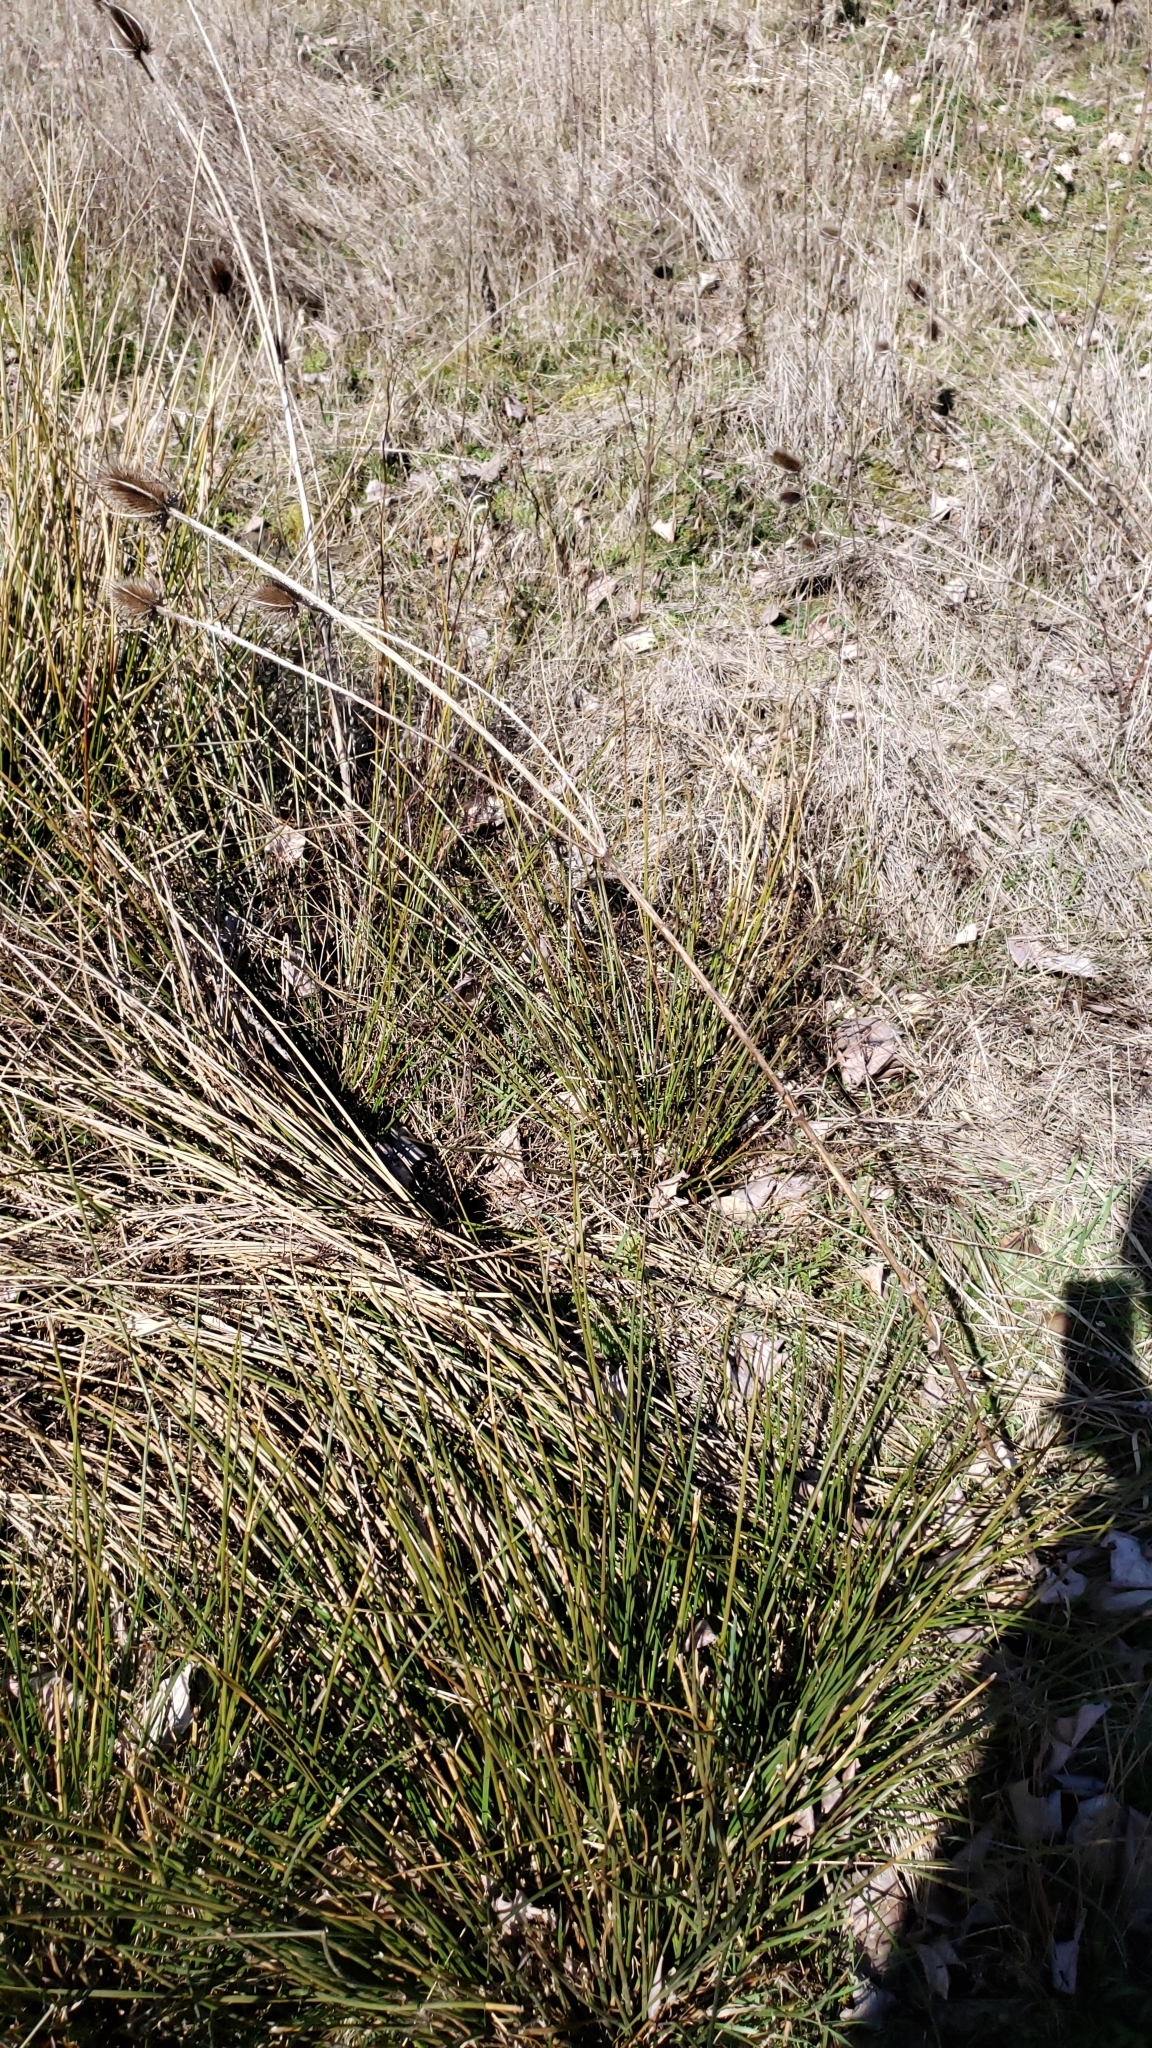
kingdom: Plantae
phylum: Tracheophyta
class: Magnoliopsida
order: Dipsacales
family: Caprifoliaceae
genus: Dipsacus
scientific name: Dipsacus fullonum
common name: Teasel
